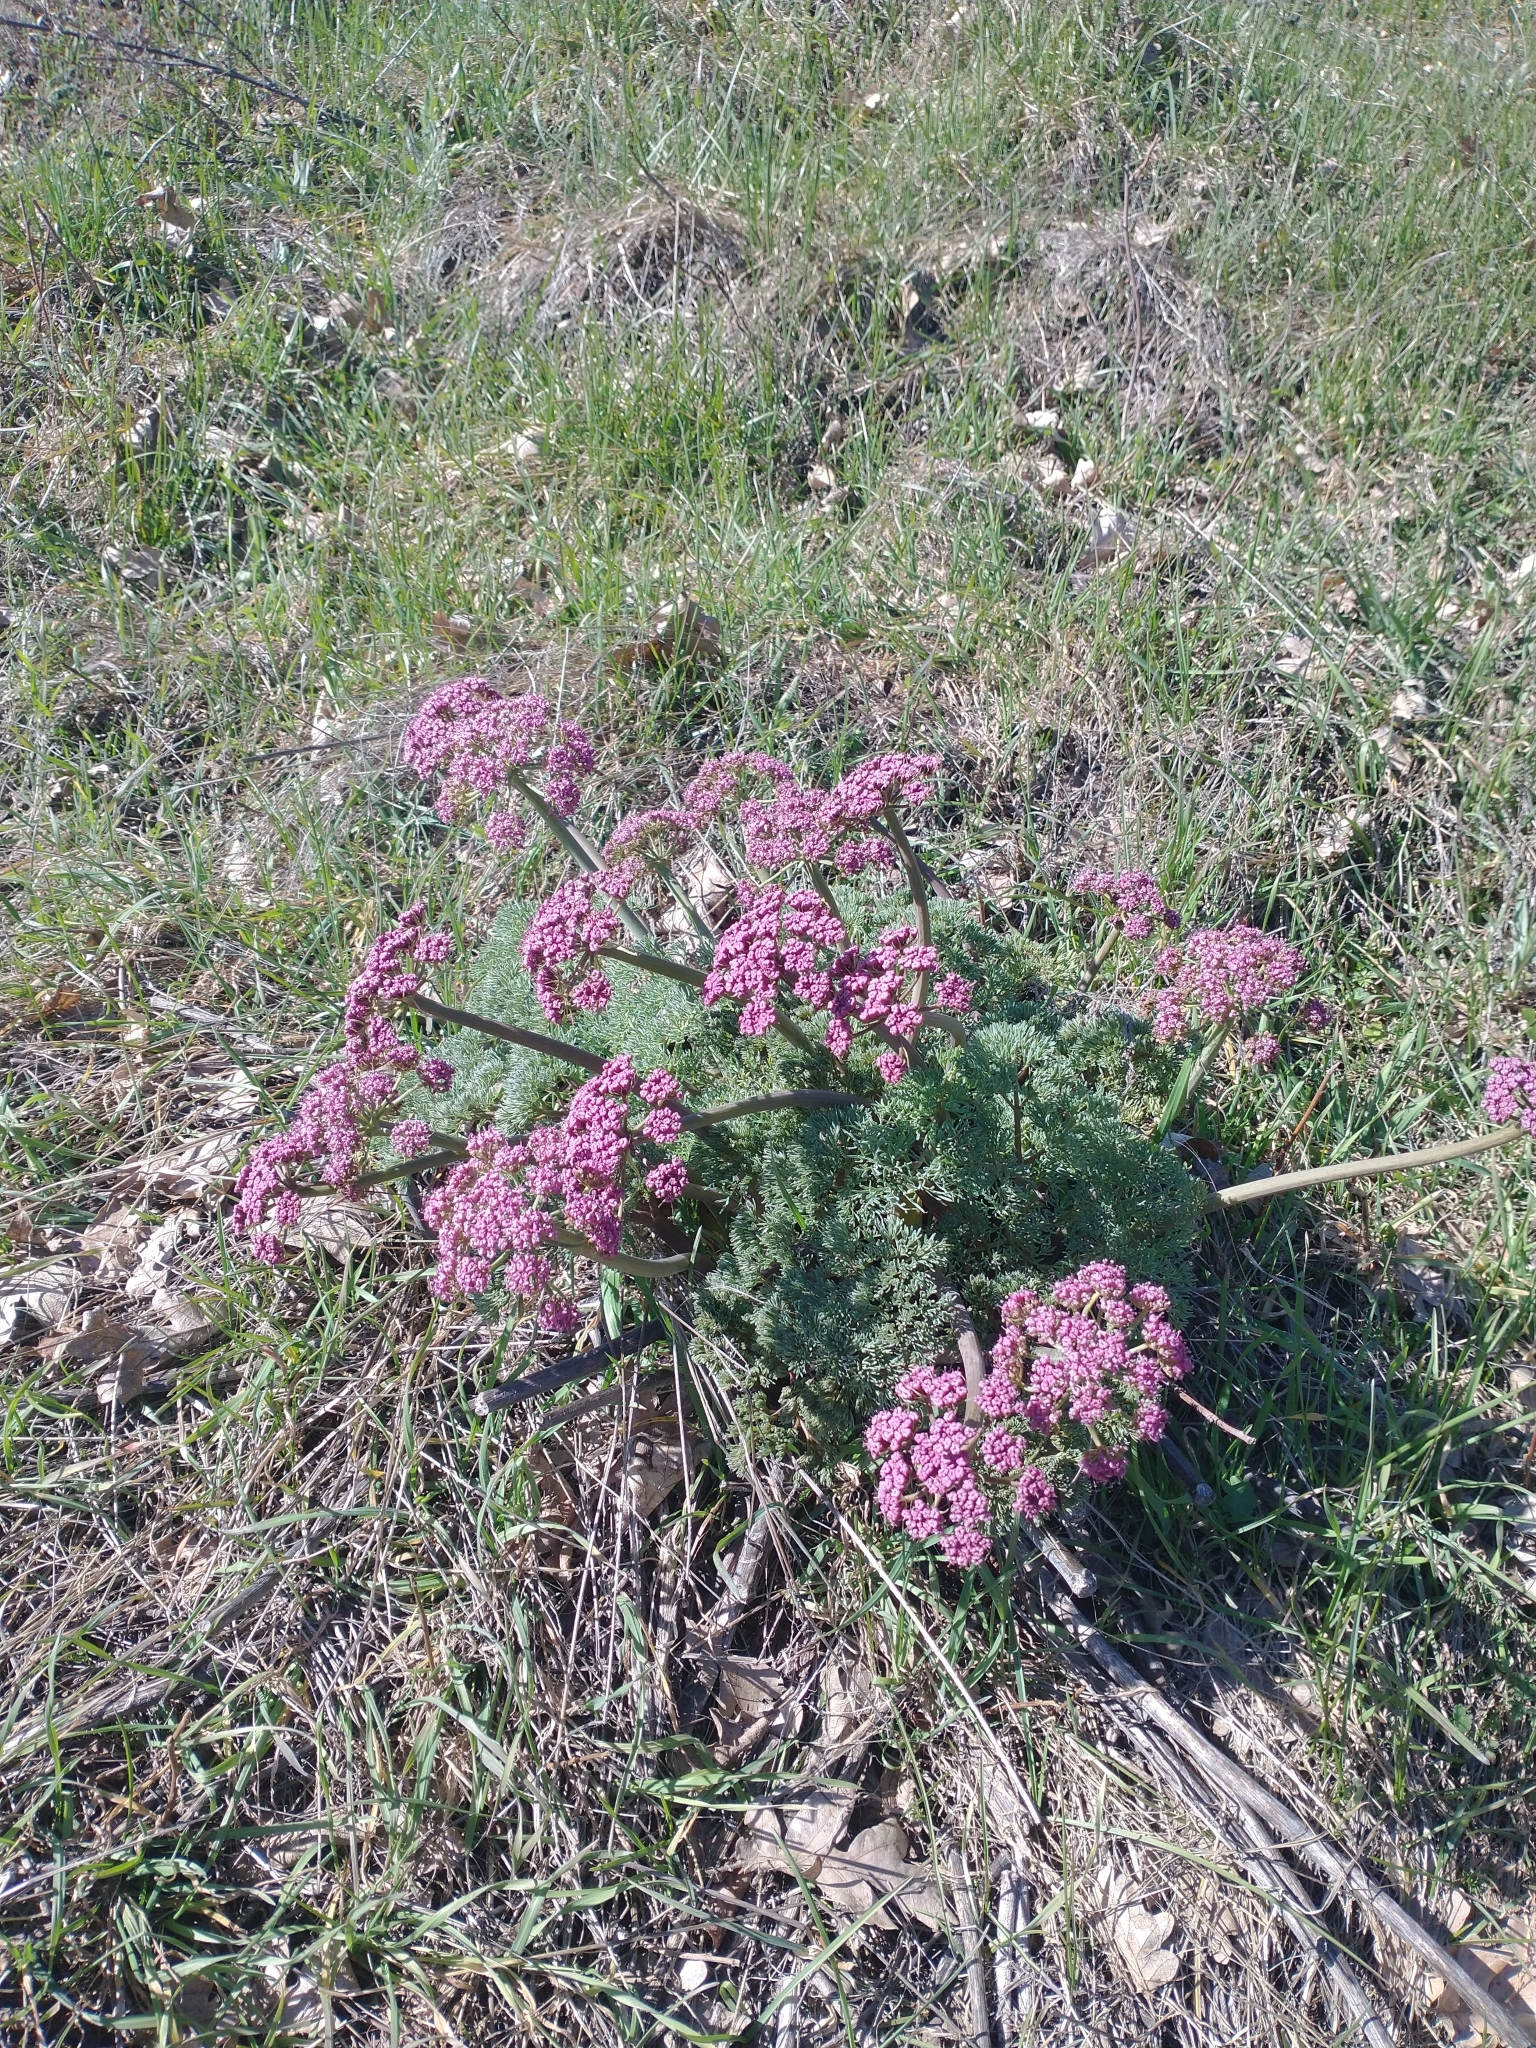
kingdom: Plantae
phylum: Tracheophyta
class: Magnoliopsida
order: Apiales
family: Apiaceae
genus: Lomatium
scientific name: Lomatium columbianum
